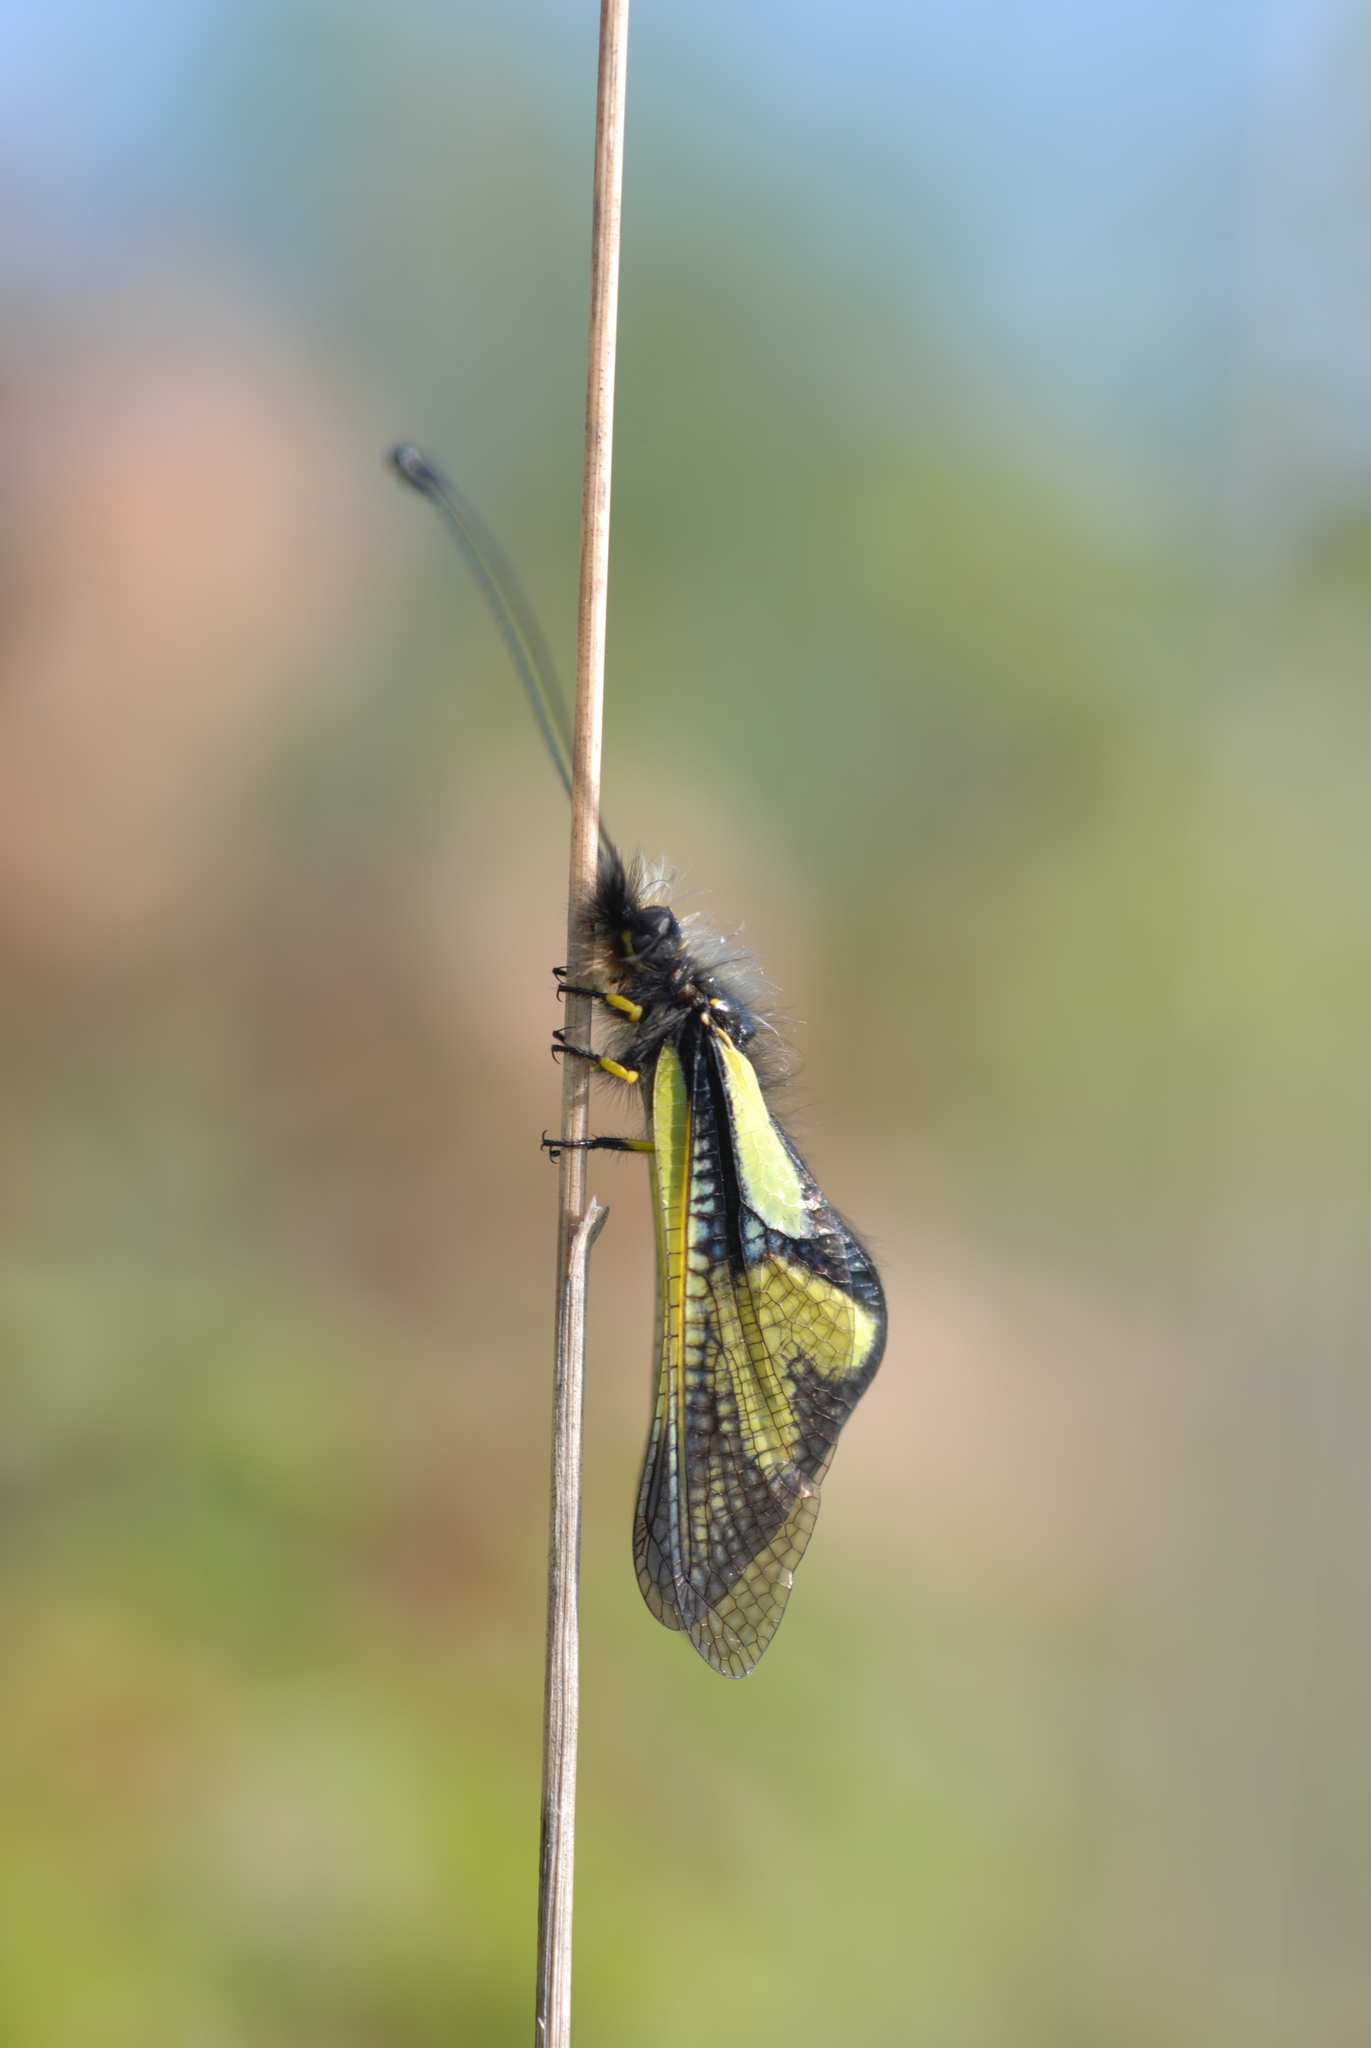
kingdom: Animalia
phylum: Arthropoda
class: Insecta
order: Neuroptera
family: Ascalaphidae
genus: Libelloides
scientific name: Libelloides coccajus
